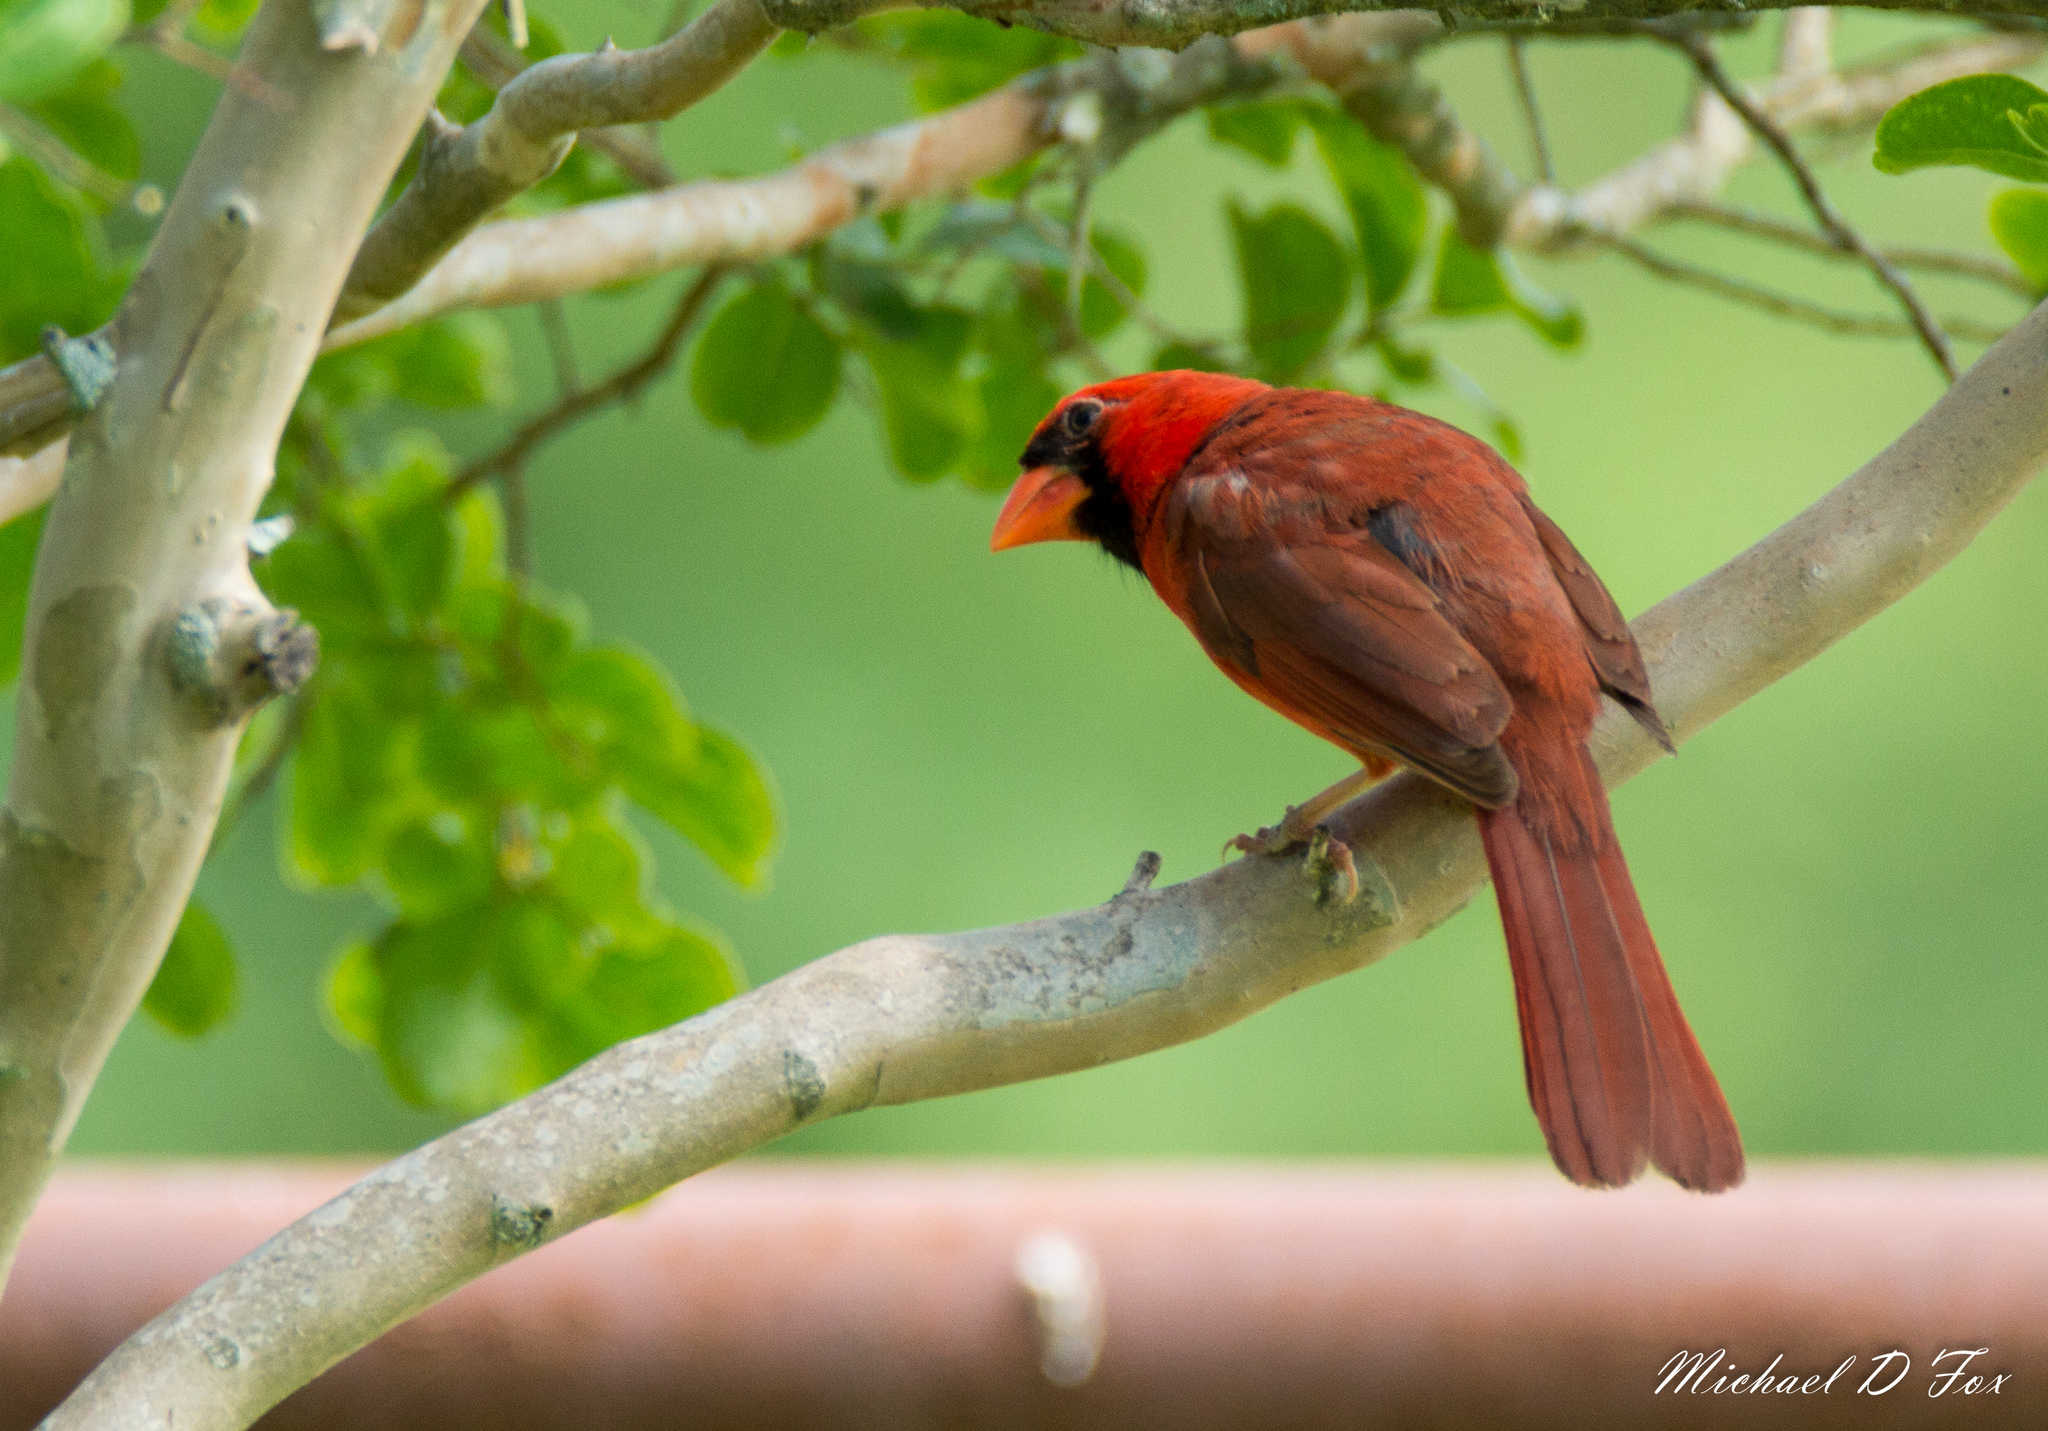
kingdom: Animalia
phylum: Chordata
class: Aves
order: Passeriformes
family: Cardinalidae
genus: Cardinalis
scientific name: Cardinalis cardinalis
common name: Northern cardinal
